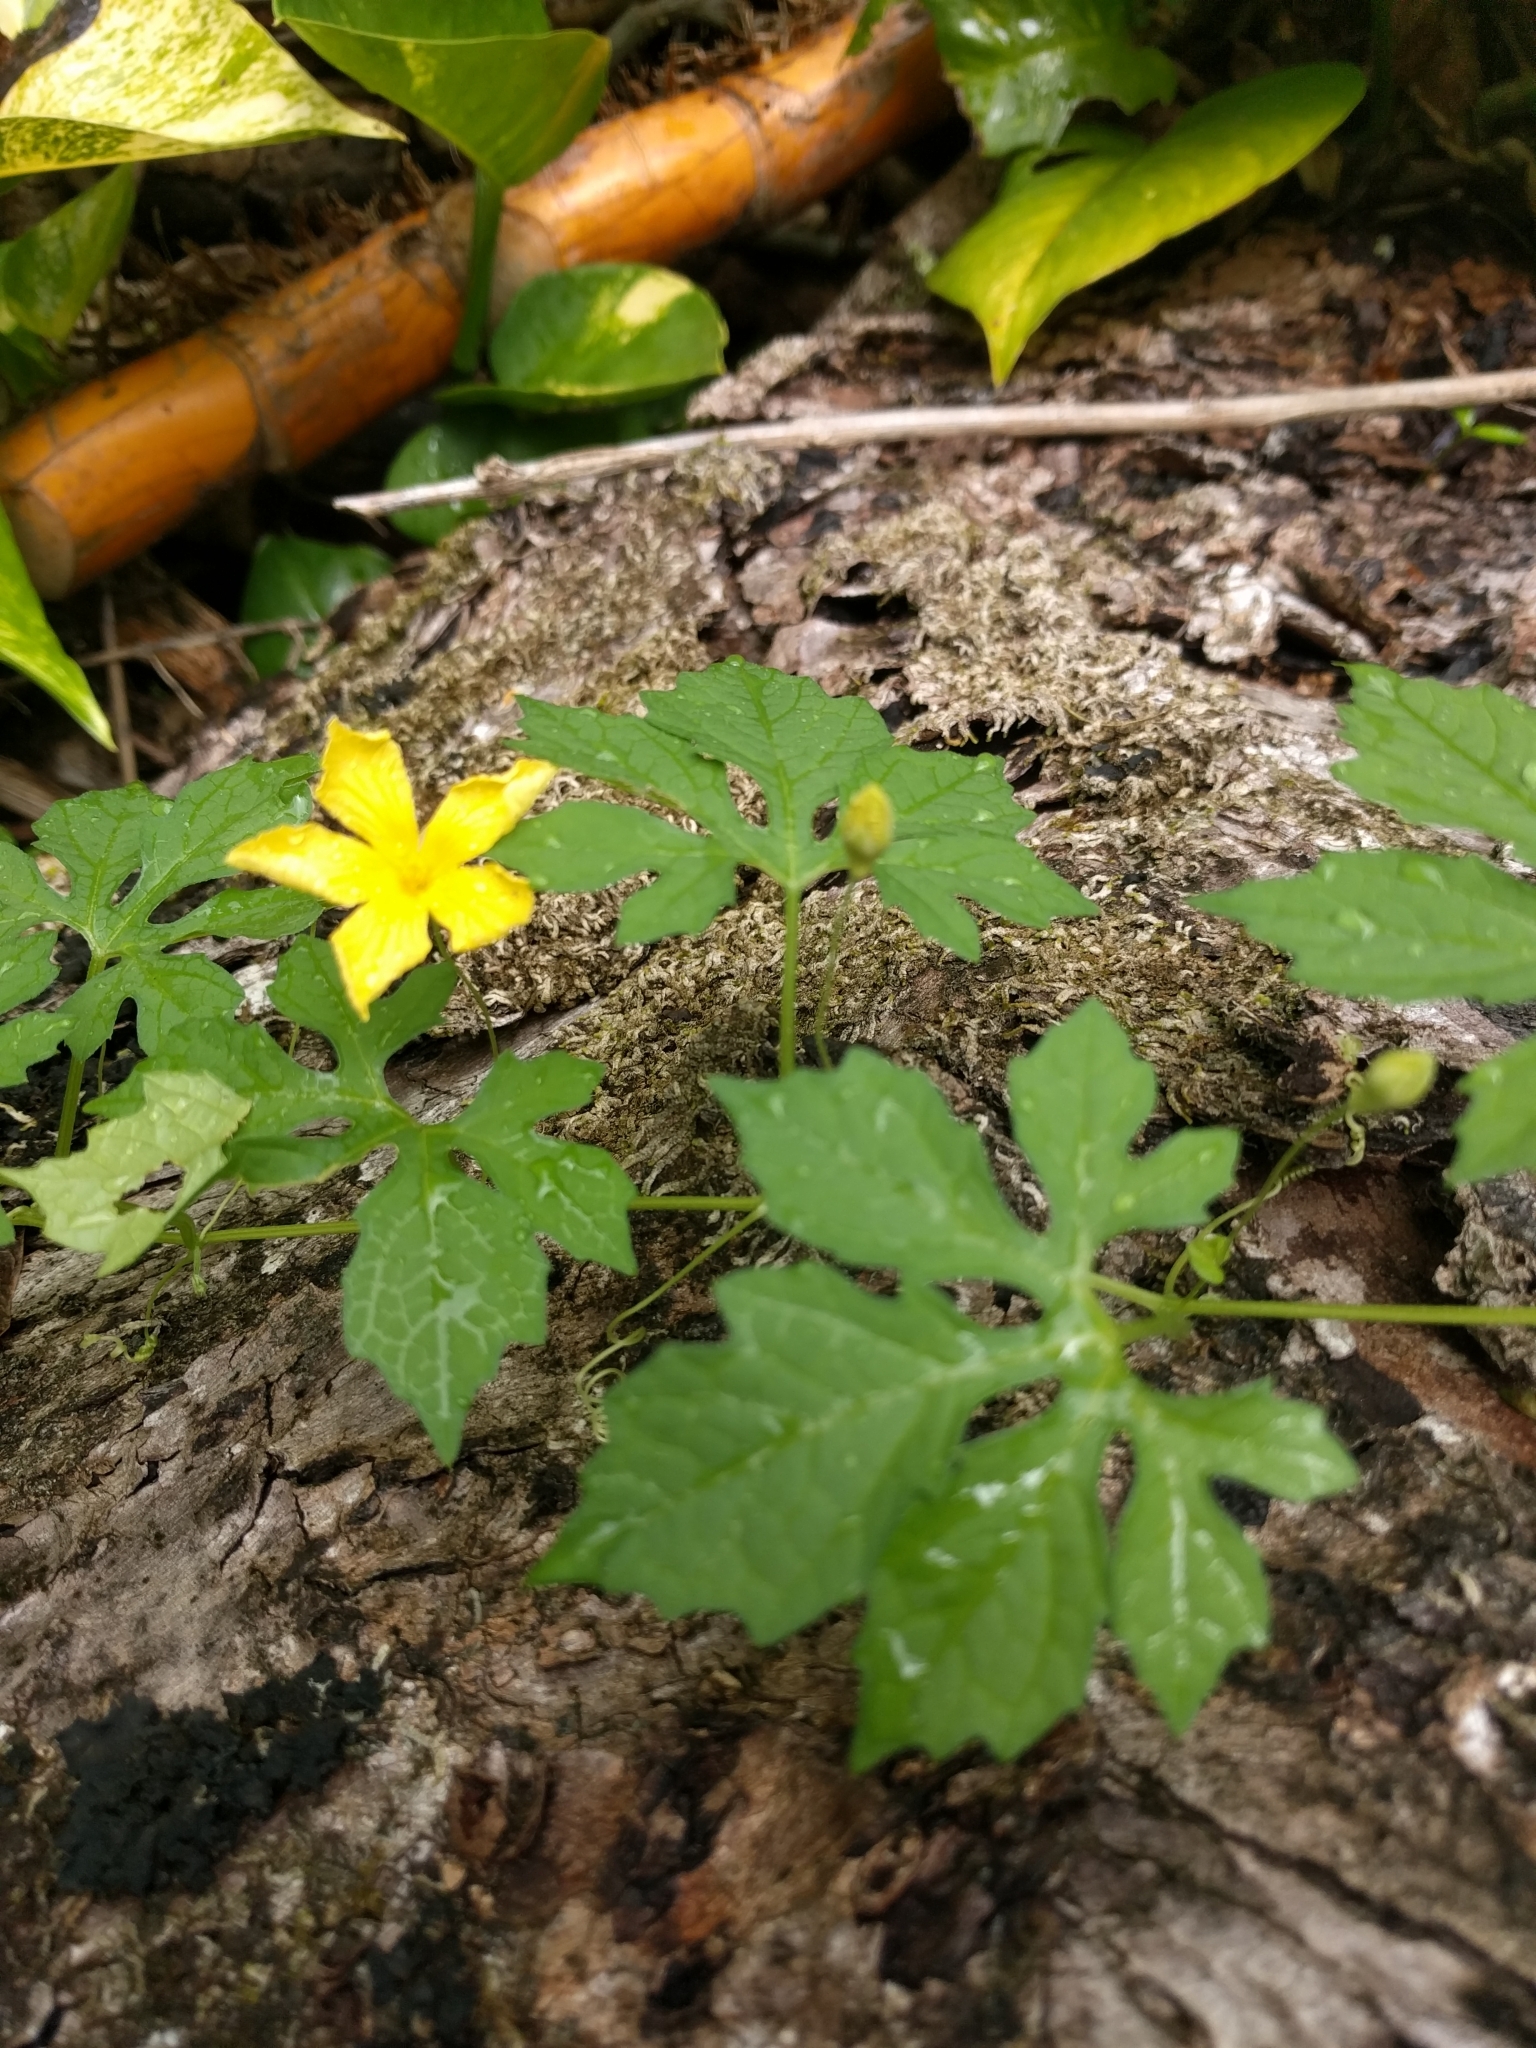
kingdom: Plantae
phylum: Tracheophyta
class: Magnoliopsida
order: Cucurbitales
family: Cucurbitaceae
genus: Momordica
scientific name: Momordica charantia
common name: Balsampear
